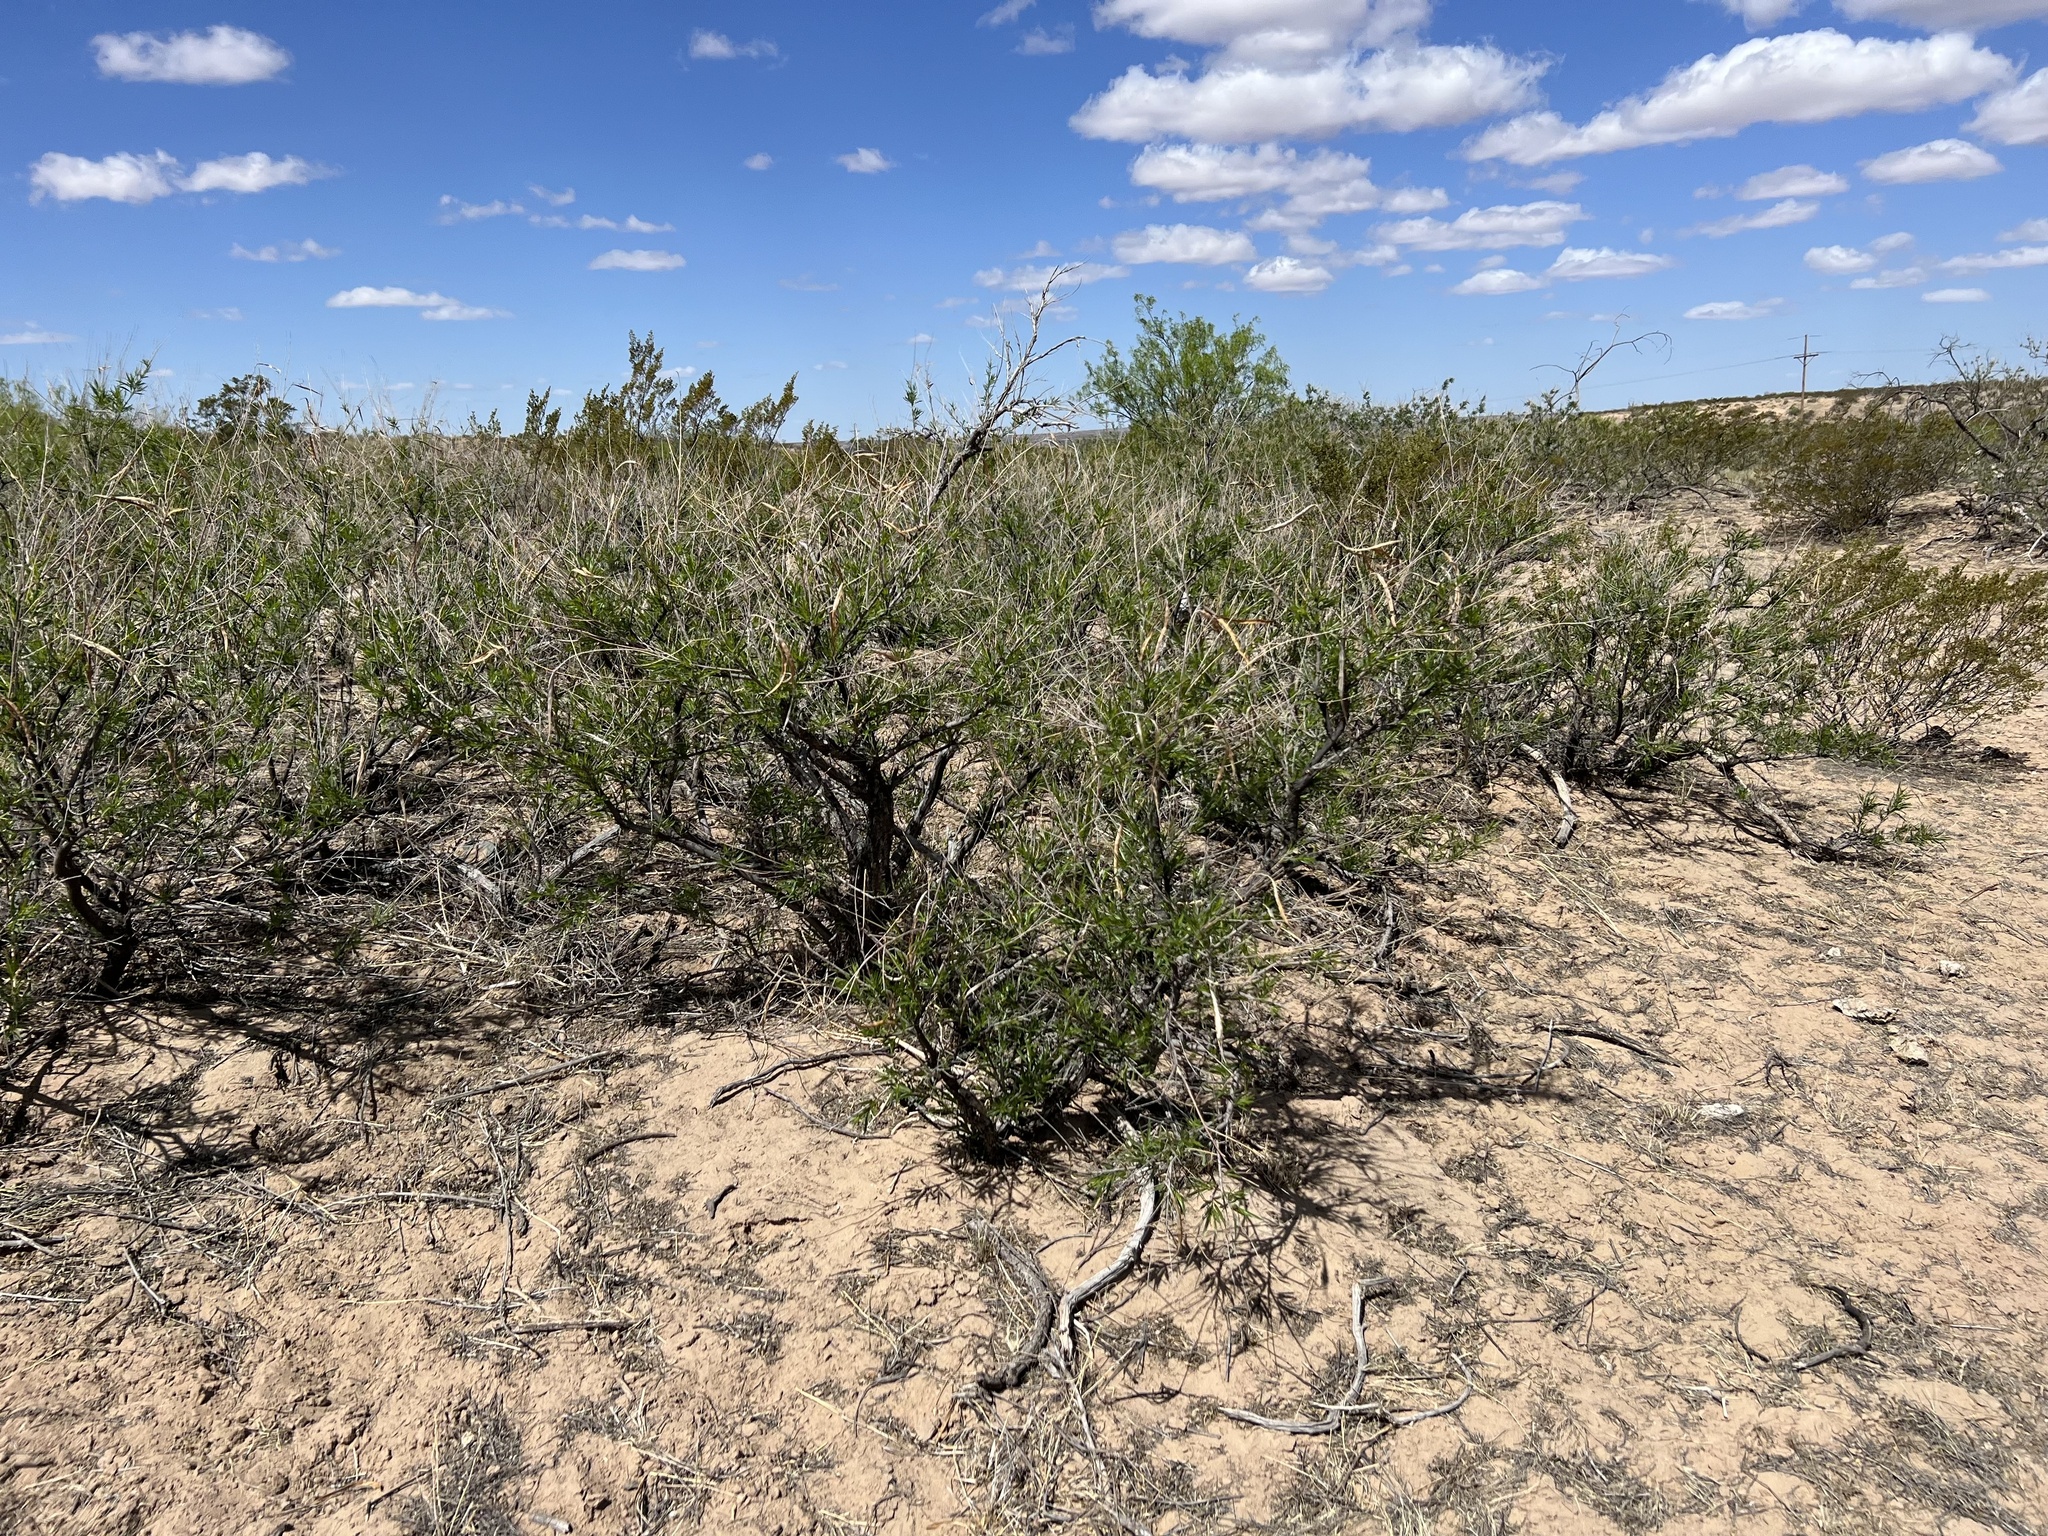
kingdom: Plantae
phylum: Tracheophyta
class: Magnoliopsida
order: Lamiales
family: Bignoniaceae
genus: Chilopsis
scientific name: Chilopsis linearis
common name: Desert-willow
